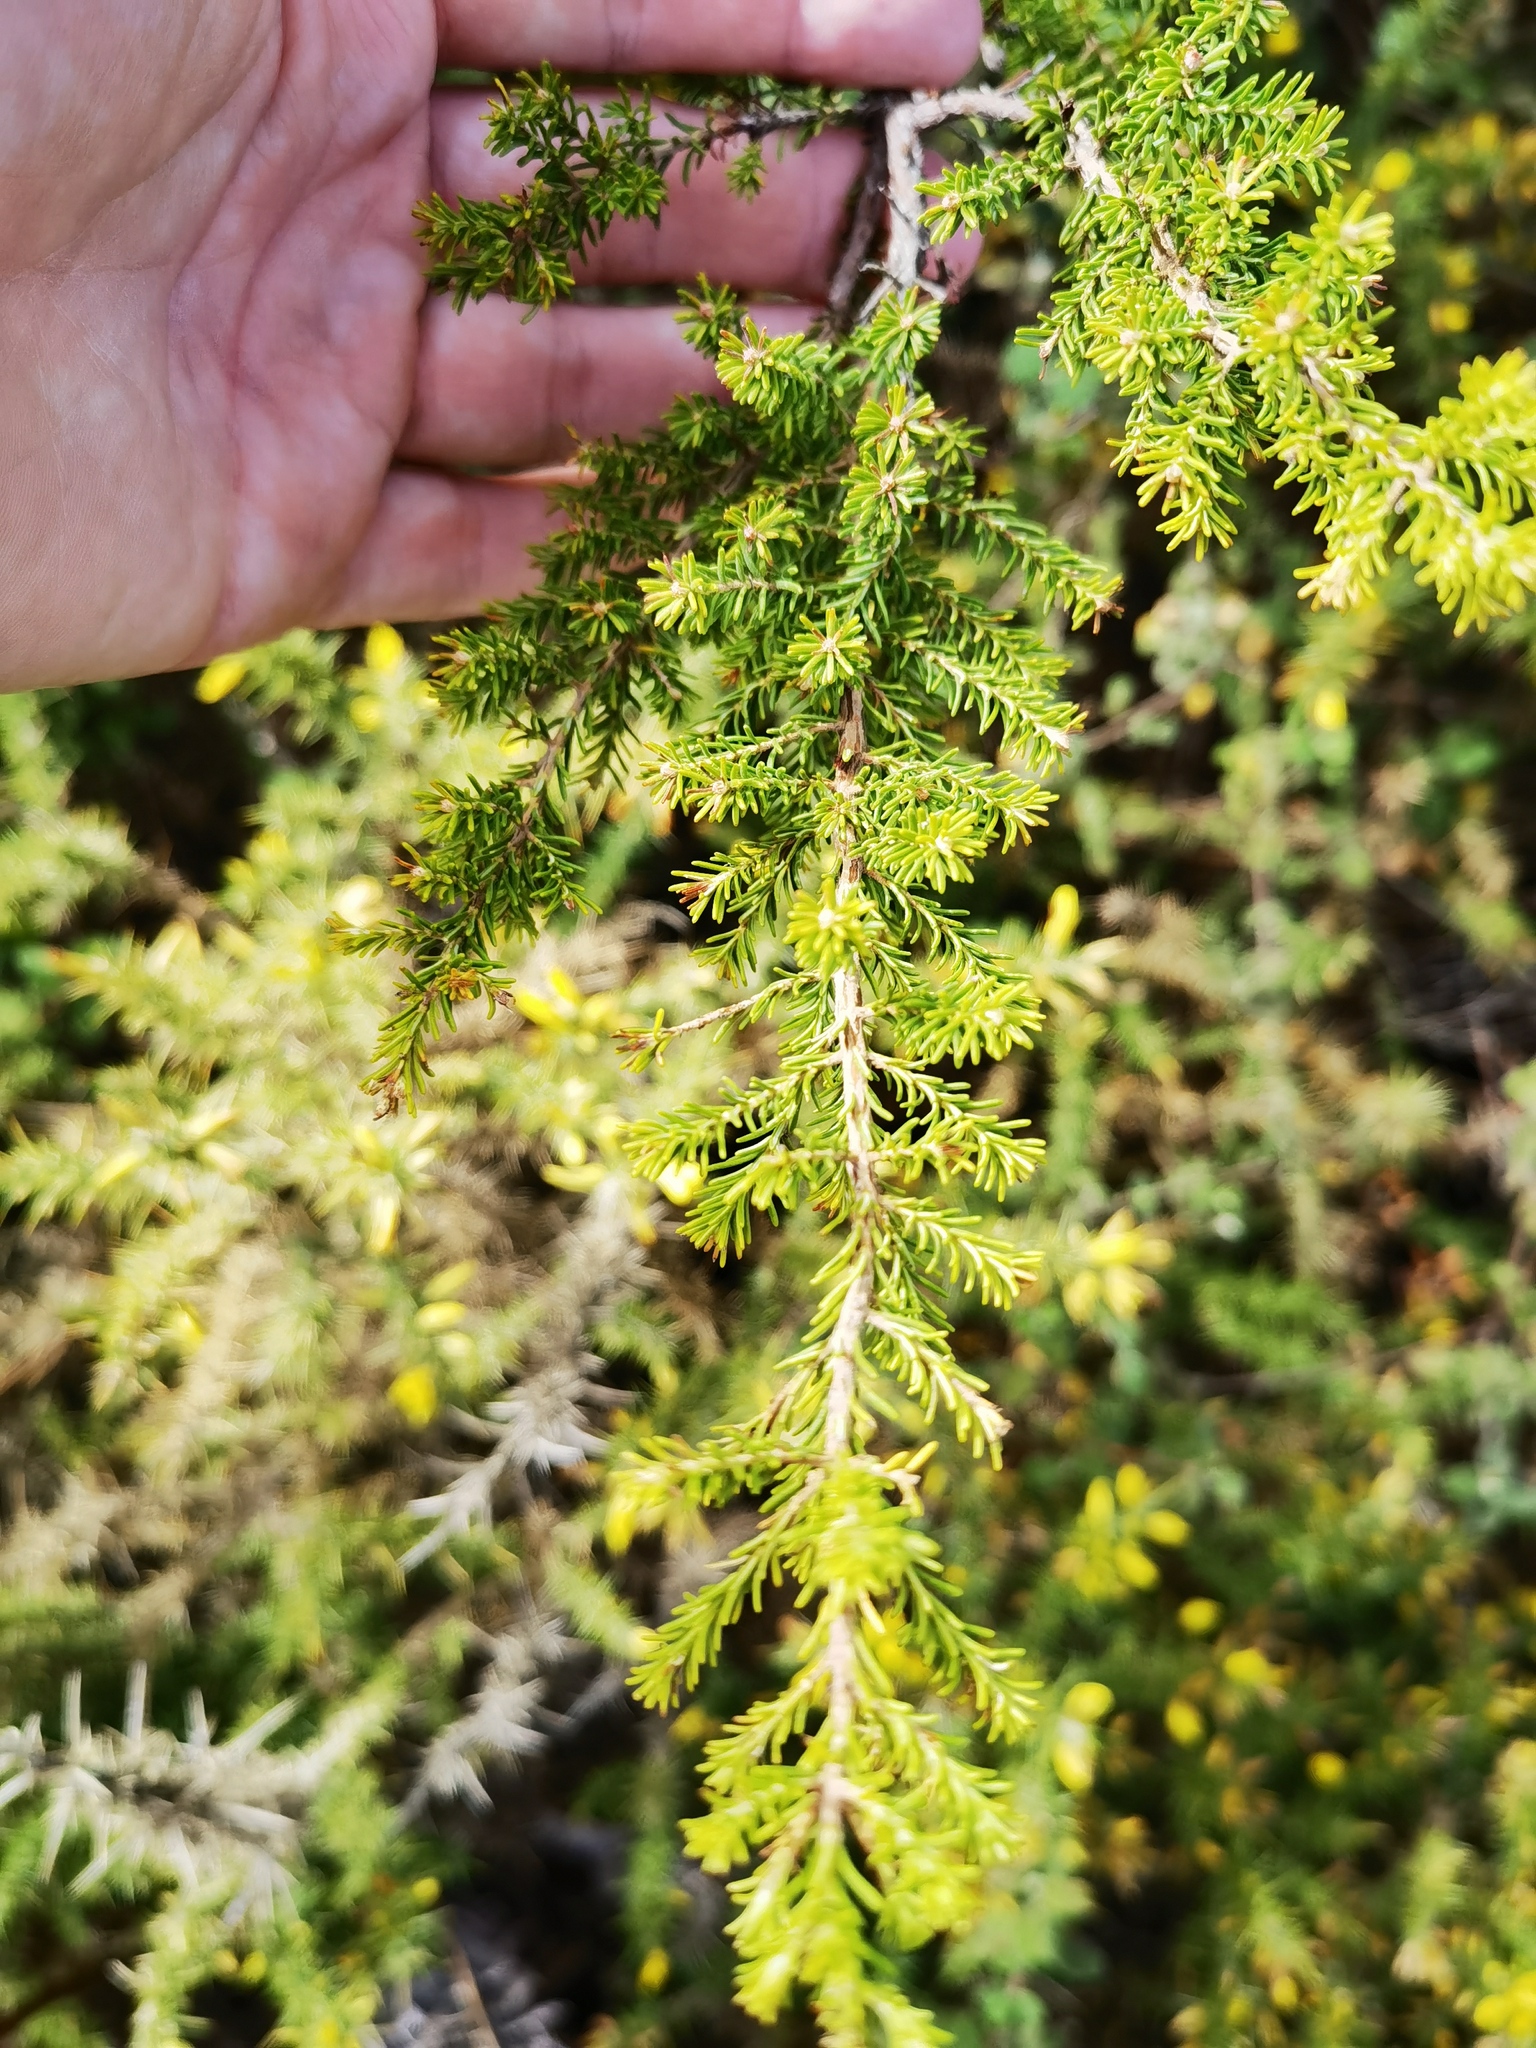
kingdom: Plantae
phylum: Tracheophyta
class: Magnoliopsida
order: Ericales
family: Ericaceae
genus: Erica
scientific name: Erica arborea
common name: Tree heath
